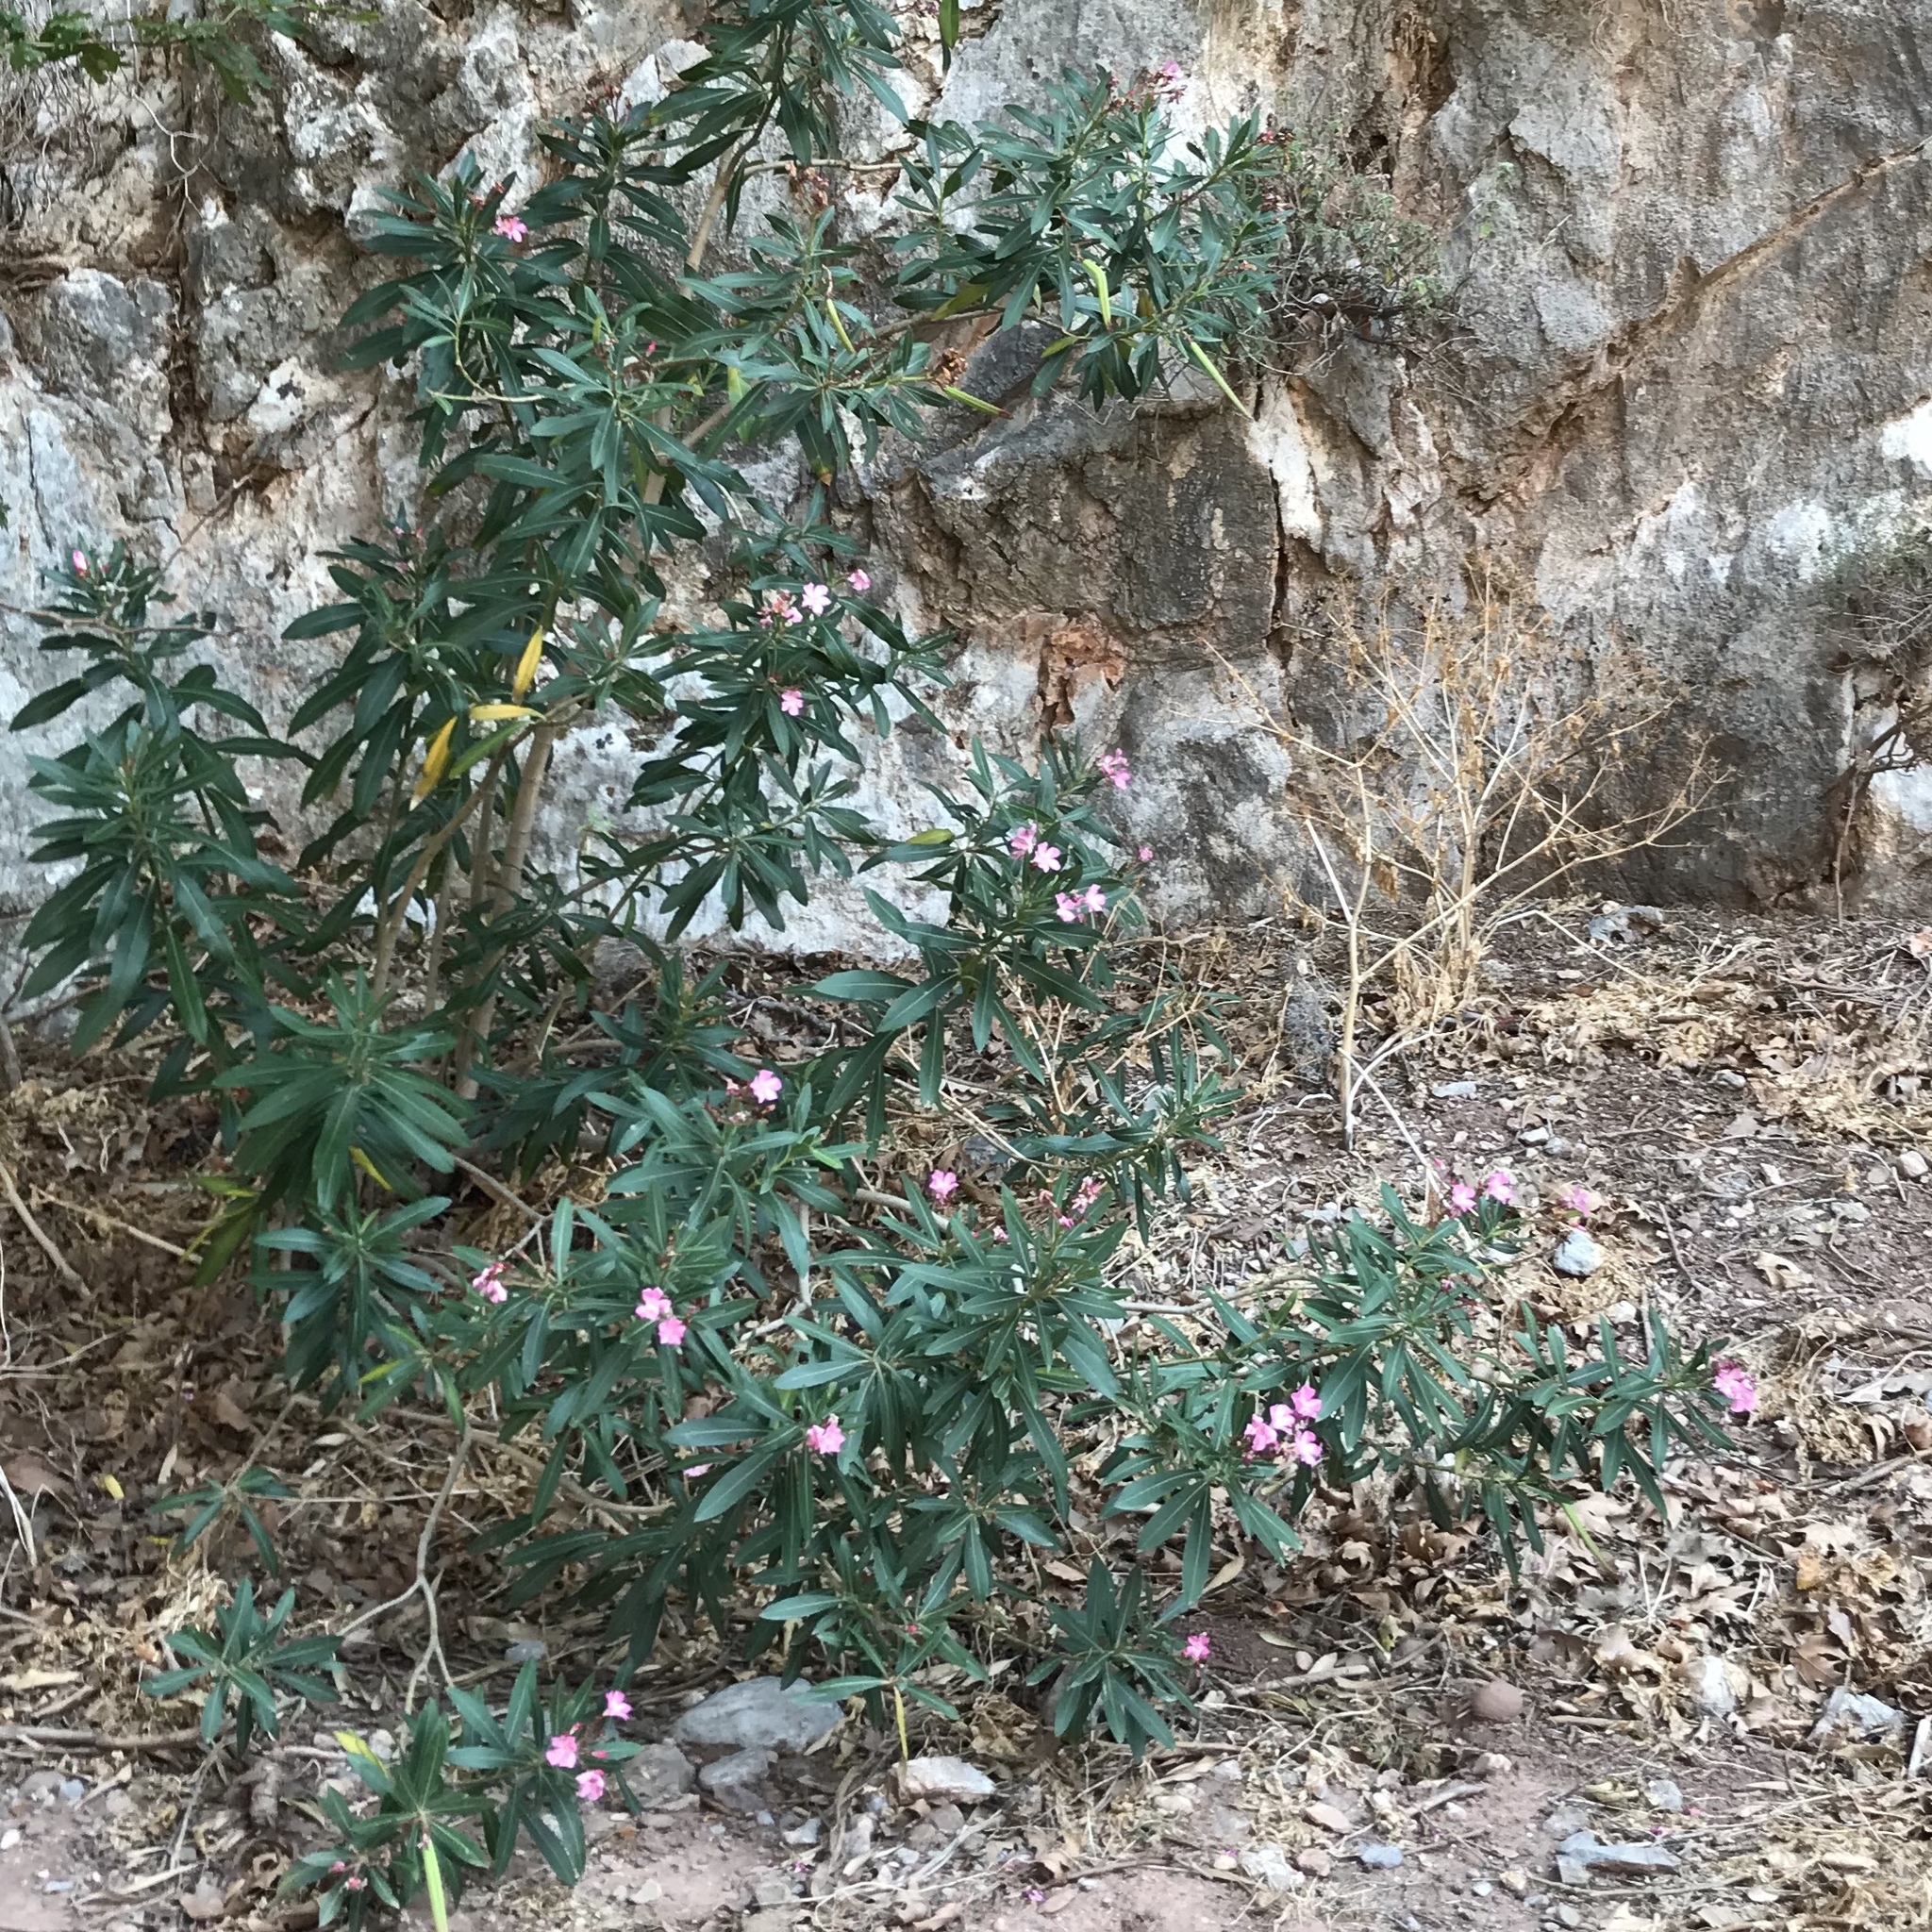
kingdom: Plantae
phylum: Tracheophyta
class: Magnoliopsida
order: Gentianales
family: Apocynaceae
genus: Nerium
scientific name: Nerium oleander
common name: Oleander
